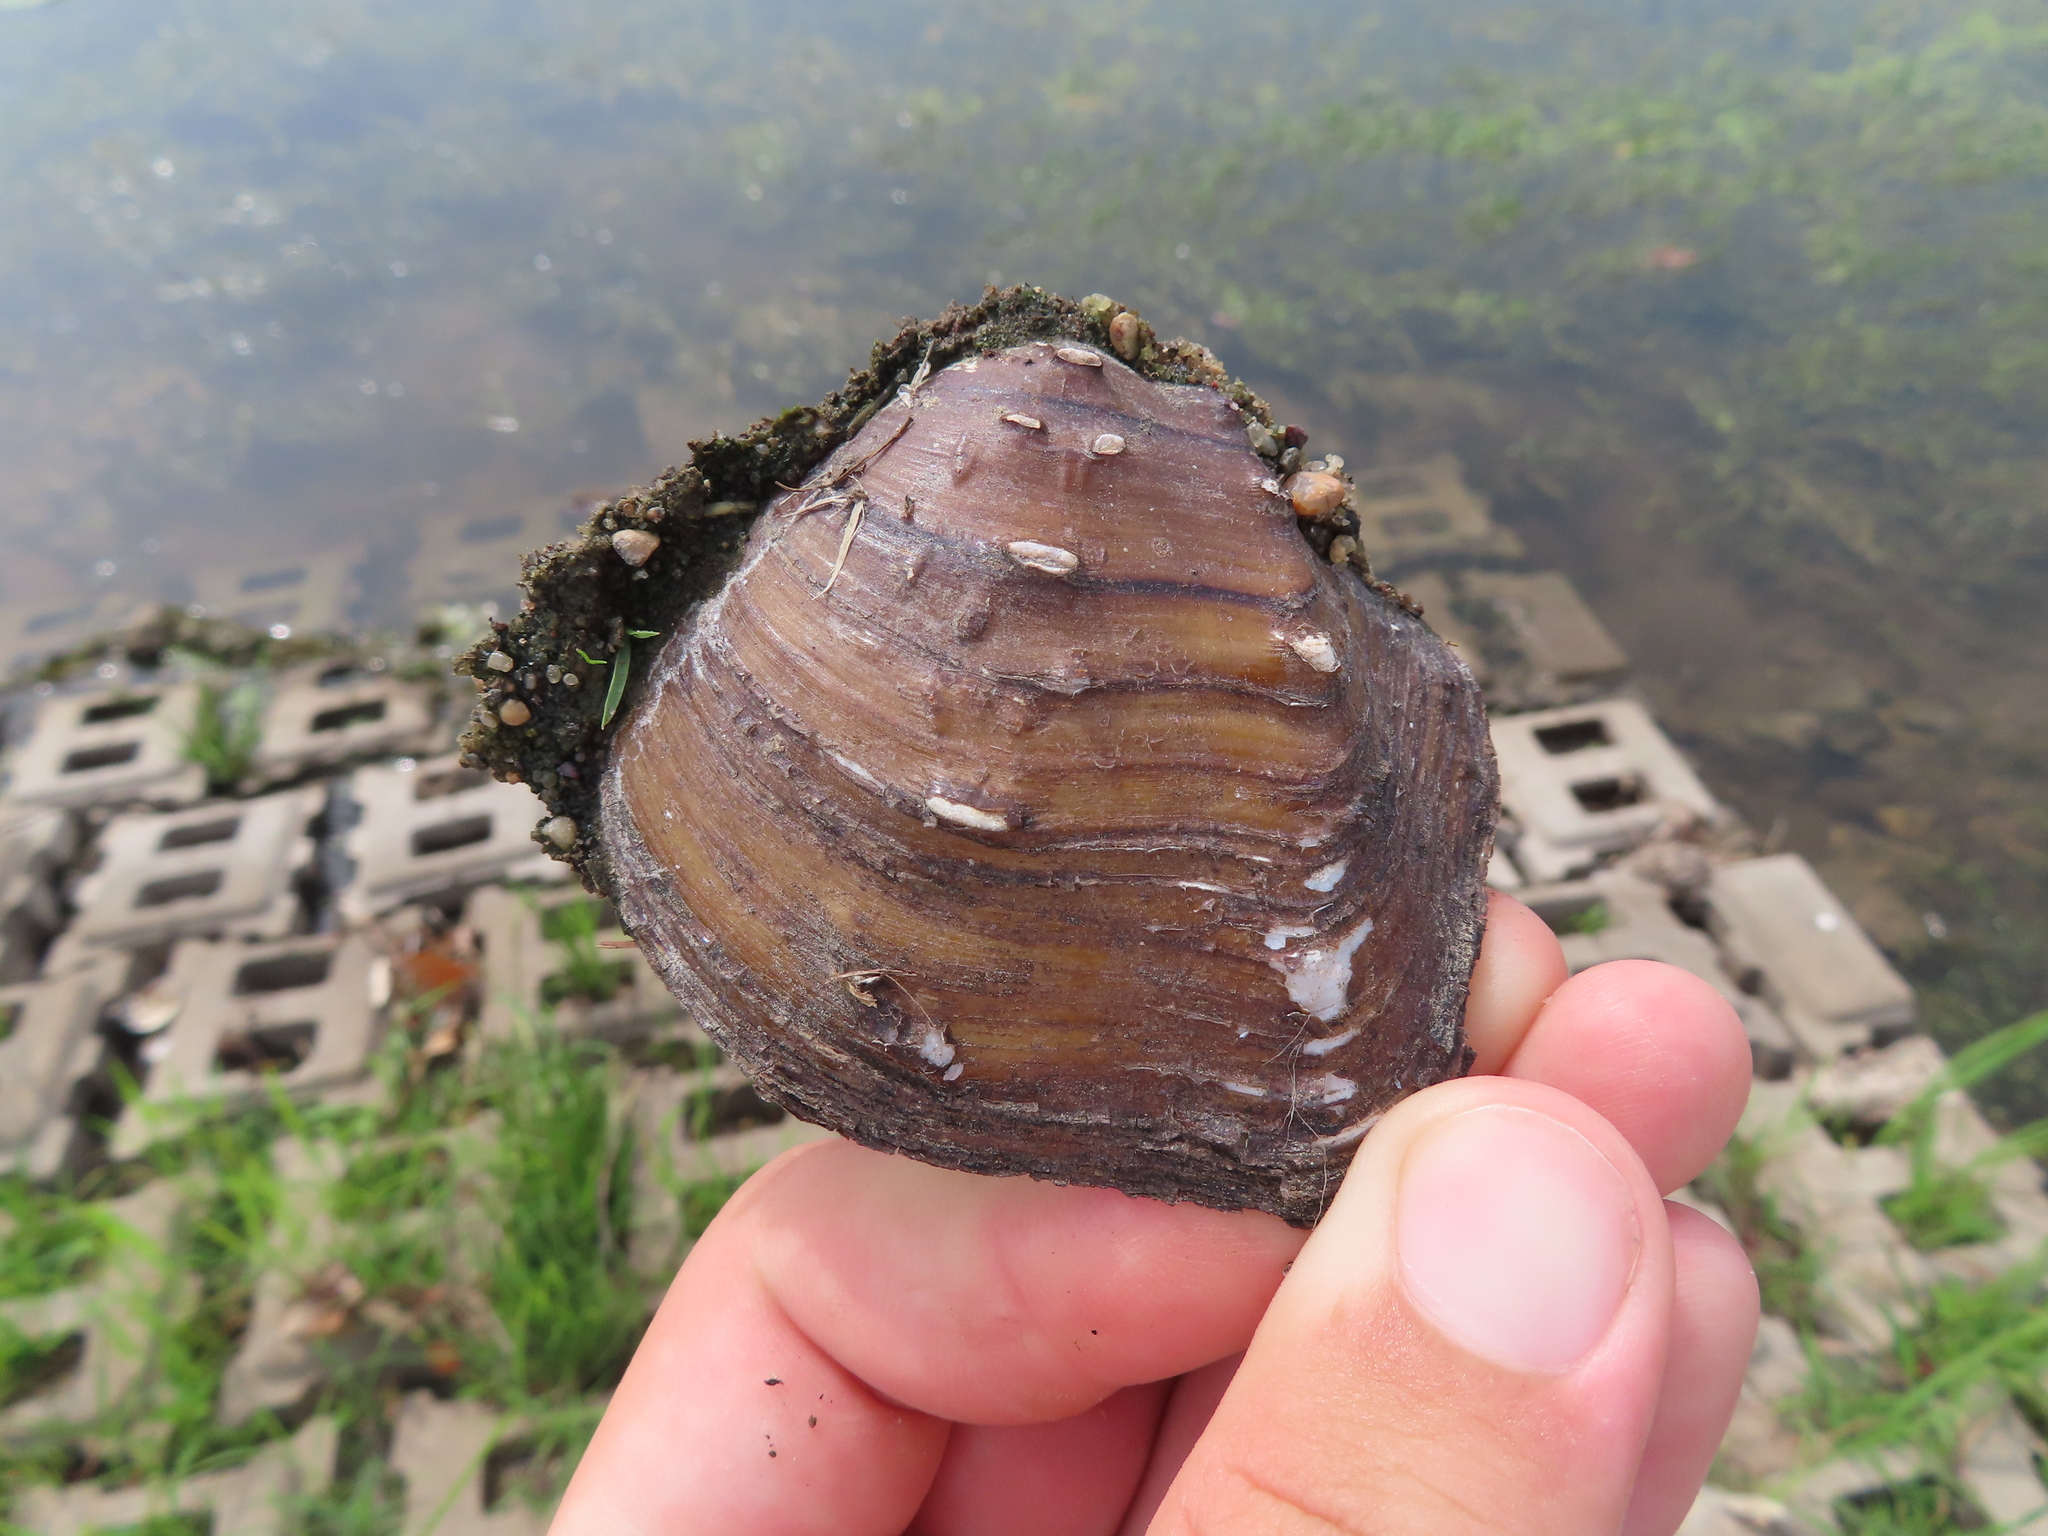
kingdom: Animalia
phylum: Mollusca
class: Bivalvia
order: Unionida
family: Unionidae
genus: Quadrula
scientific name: Quadrula quadrula
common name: Mapleleaf
